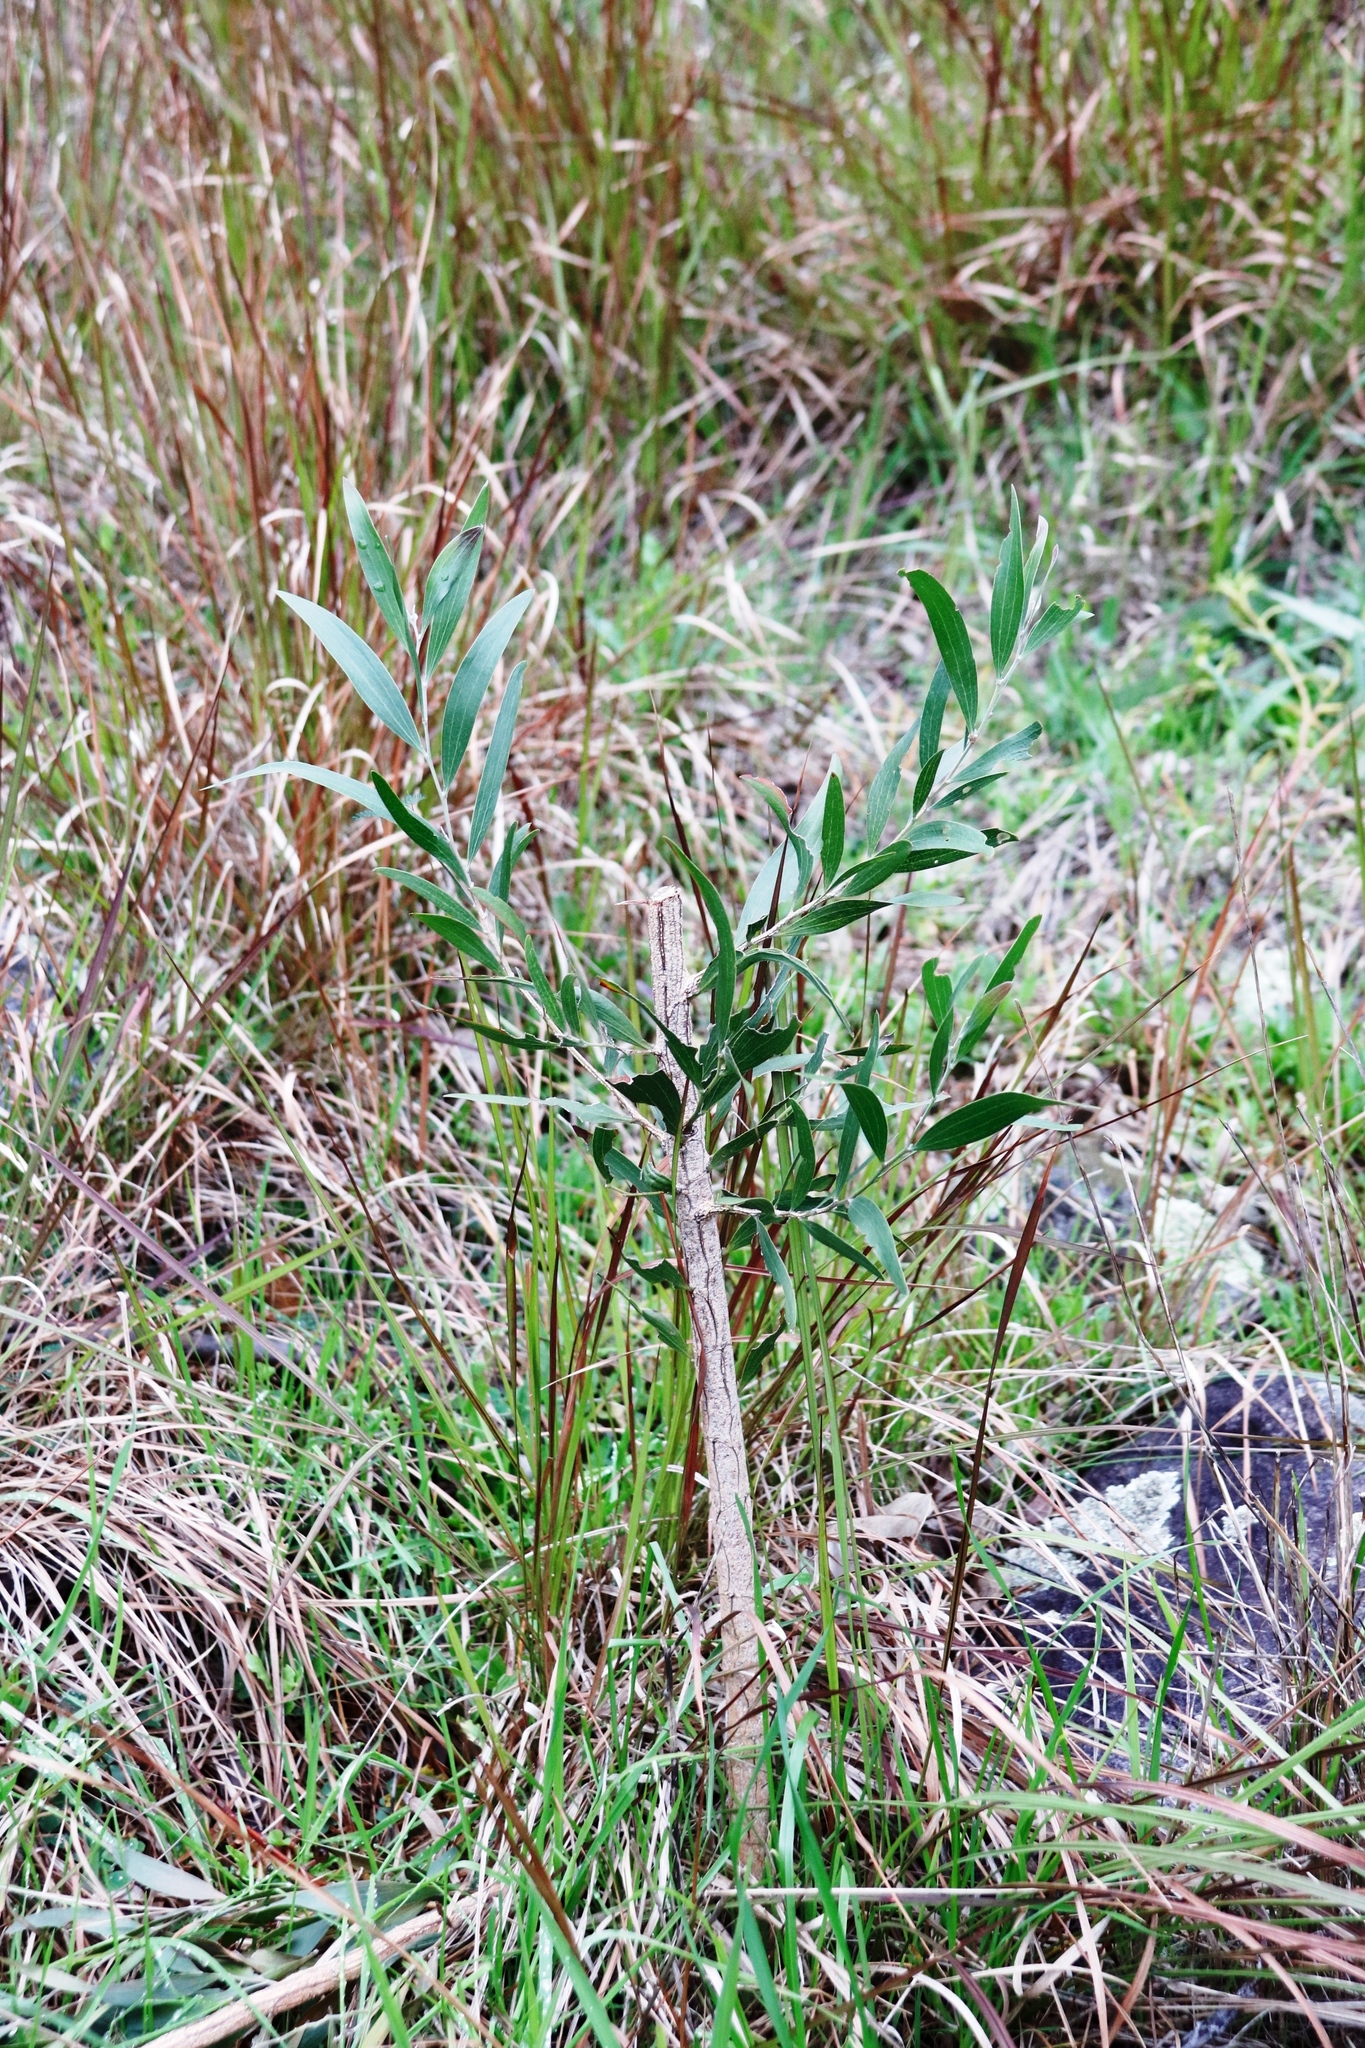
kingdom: Plantae
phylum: Tracheophyta
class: Magnoliopsida
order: Fabales
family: Fabaceae
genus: Acacia
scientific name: Acacia melanoxylon
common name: Blackwood
